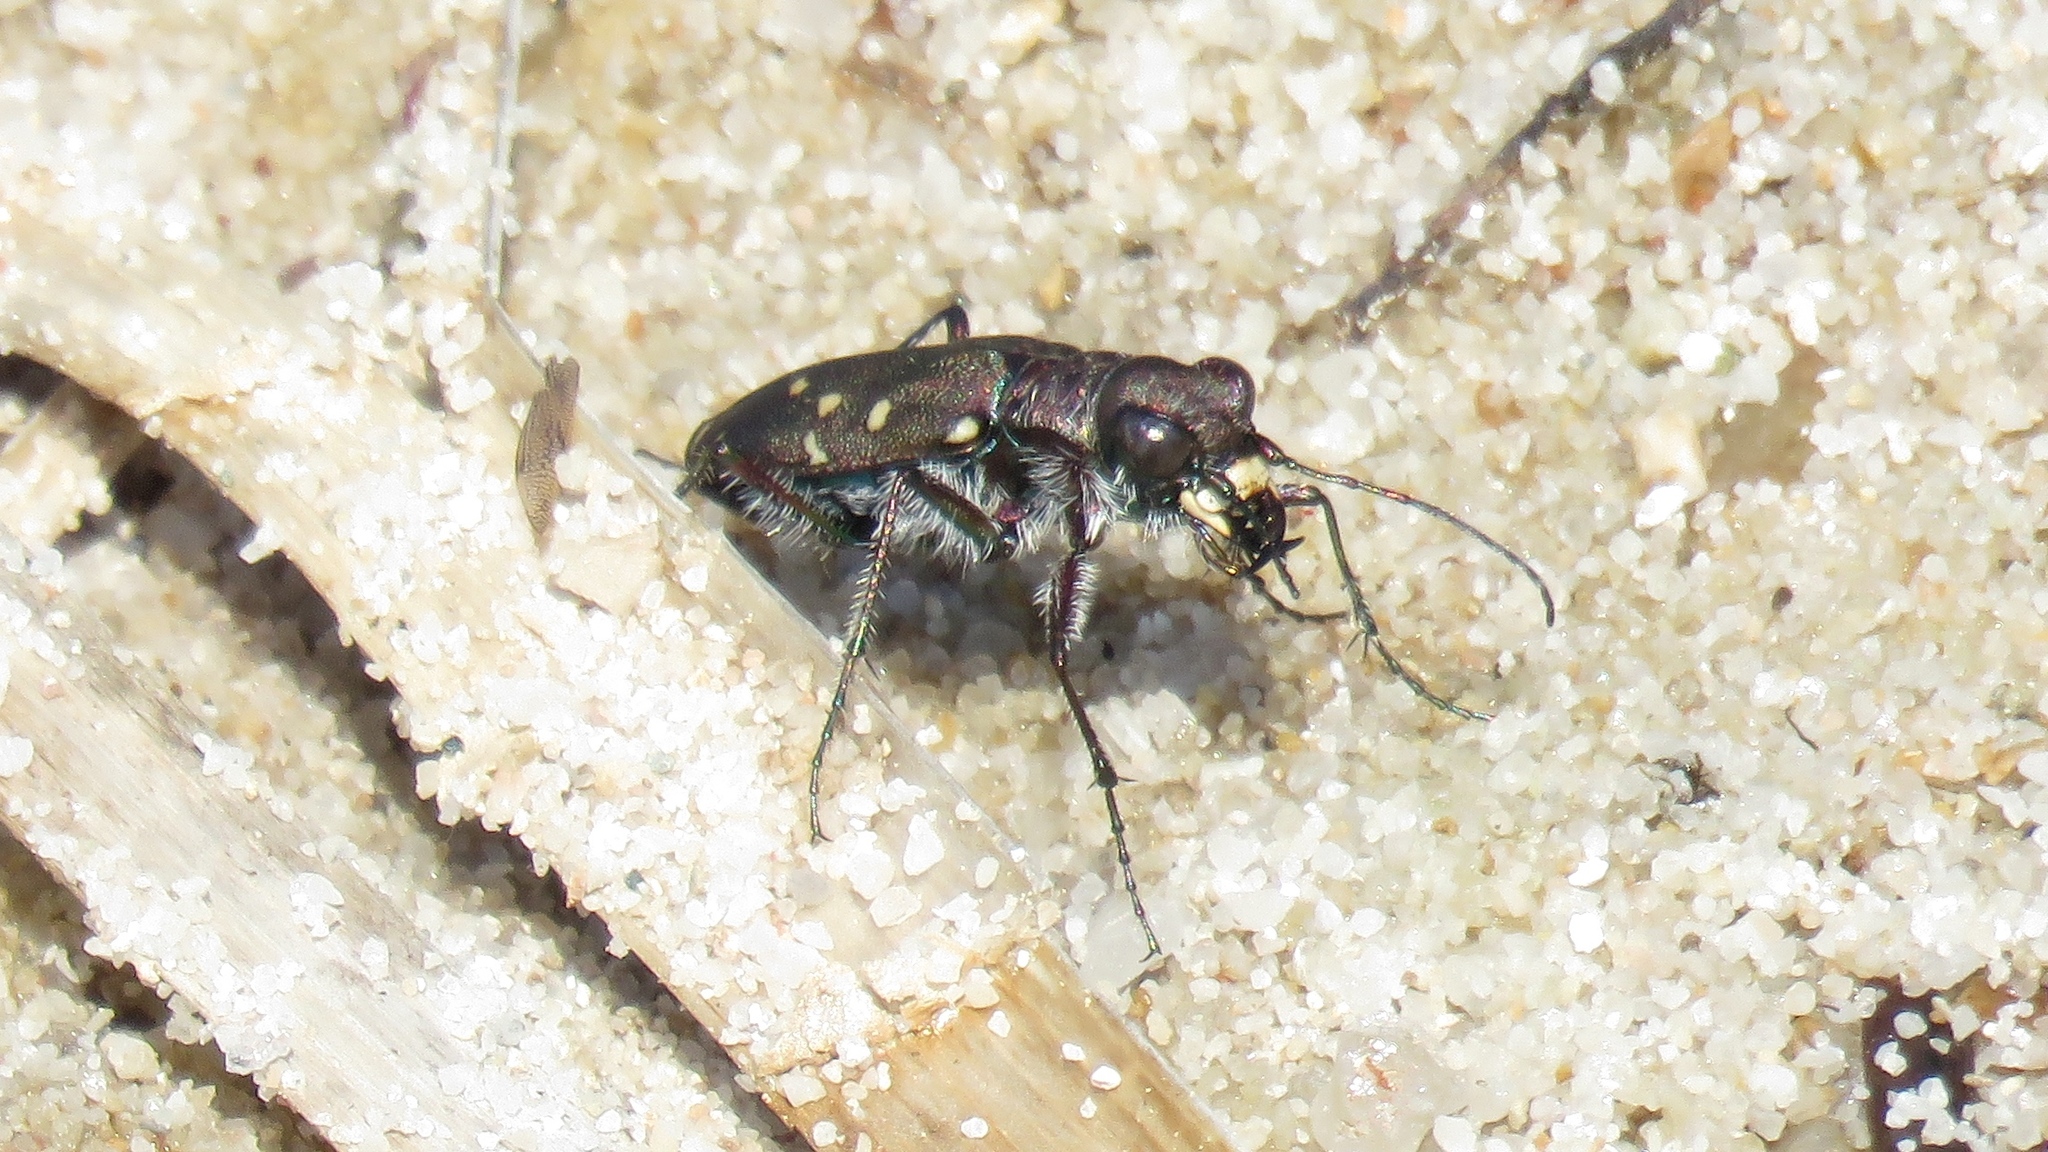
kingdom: Animalia
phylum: Arthropoda
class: Insecta
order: Coleoptera
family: Carabidae
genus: Cicindela
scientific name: Cicindela duodecimguttata
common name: Twelve-spotted tiger beetle
